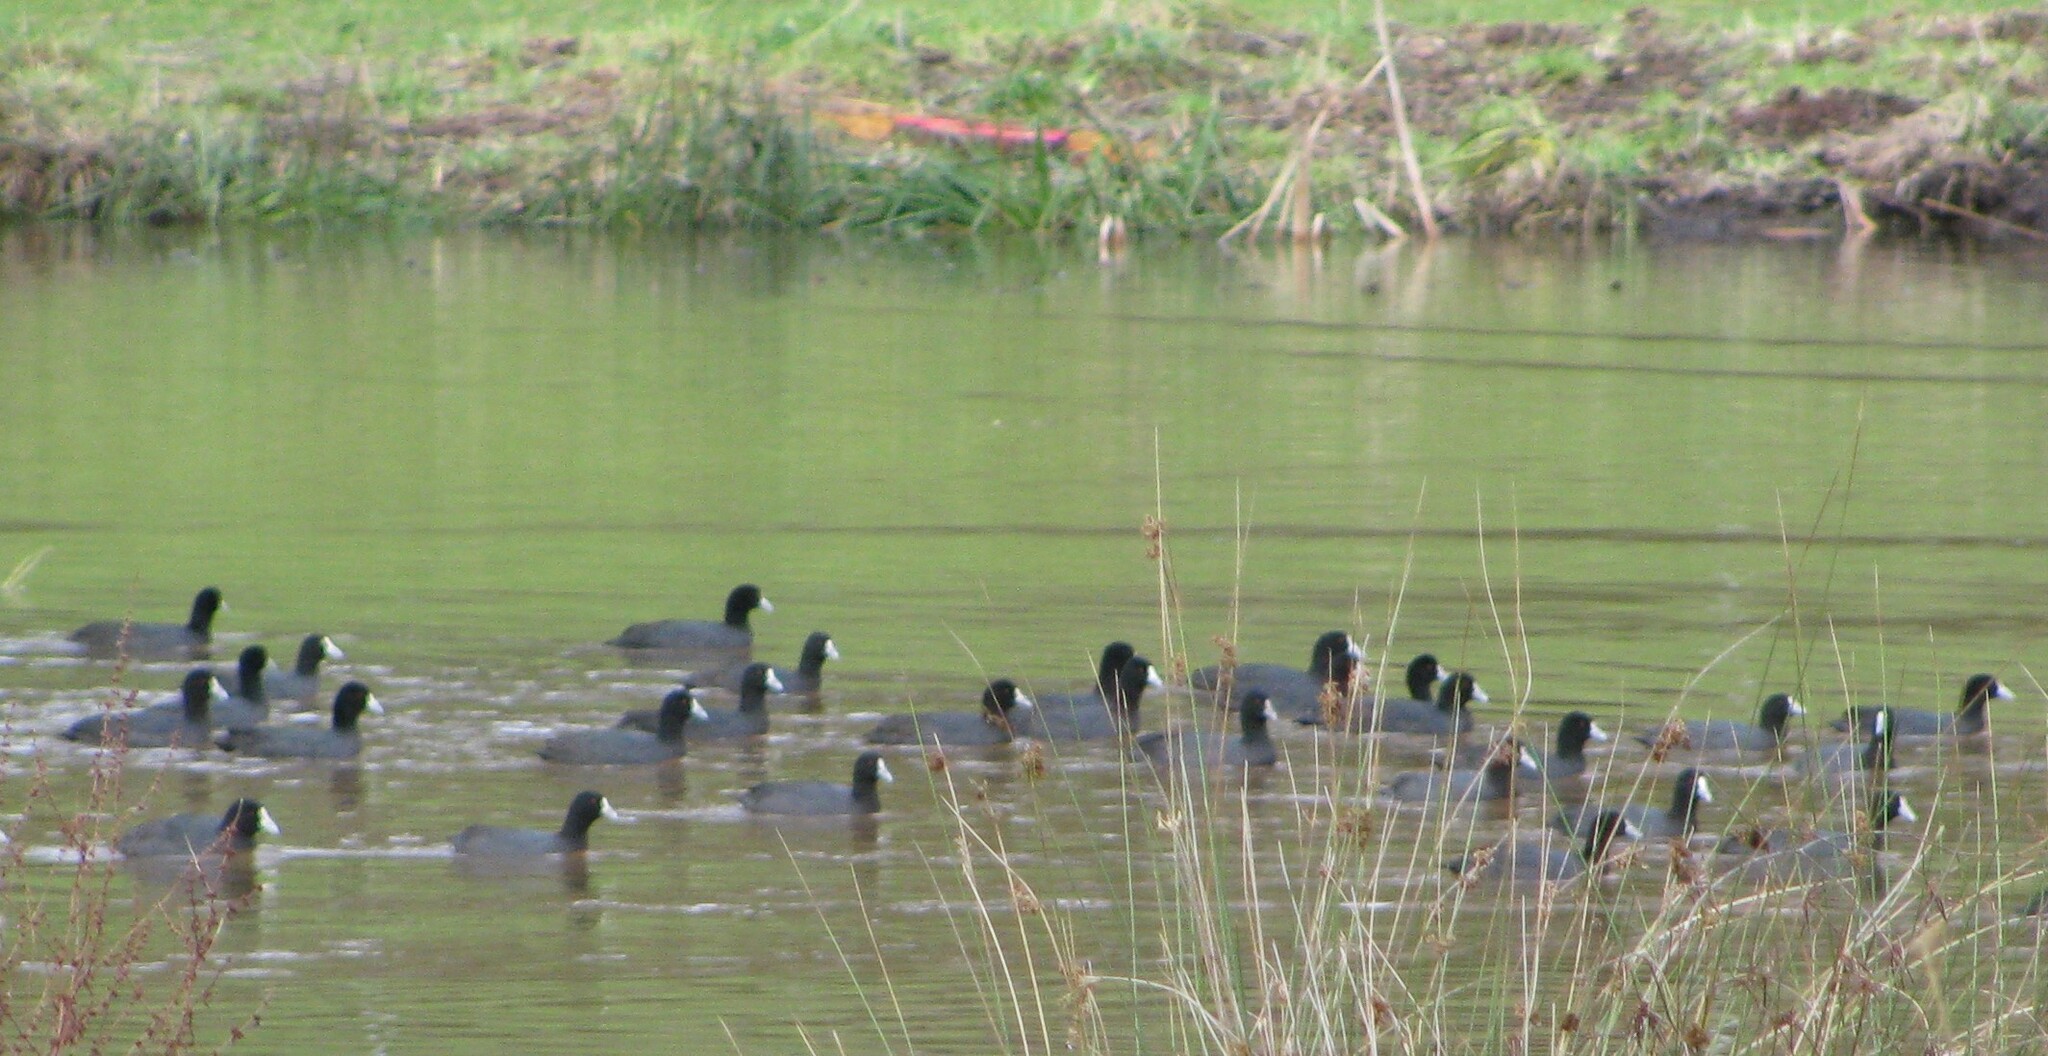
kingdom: Animalia
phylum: Chordata
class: Aves
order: Gruiformes
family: Rallidae
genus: Fulica
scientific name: Fulica atra
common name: Eurasian coot
